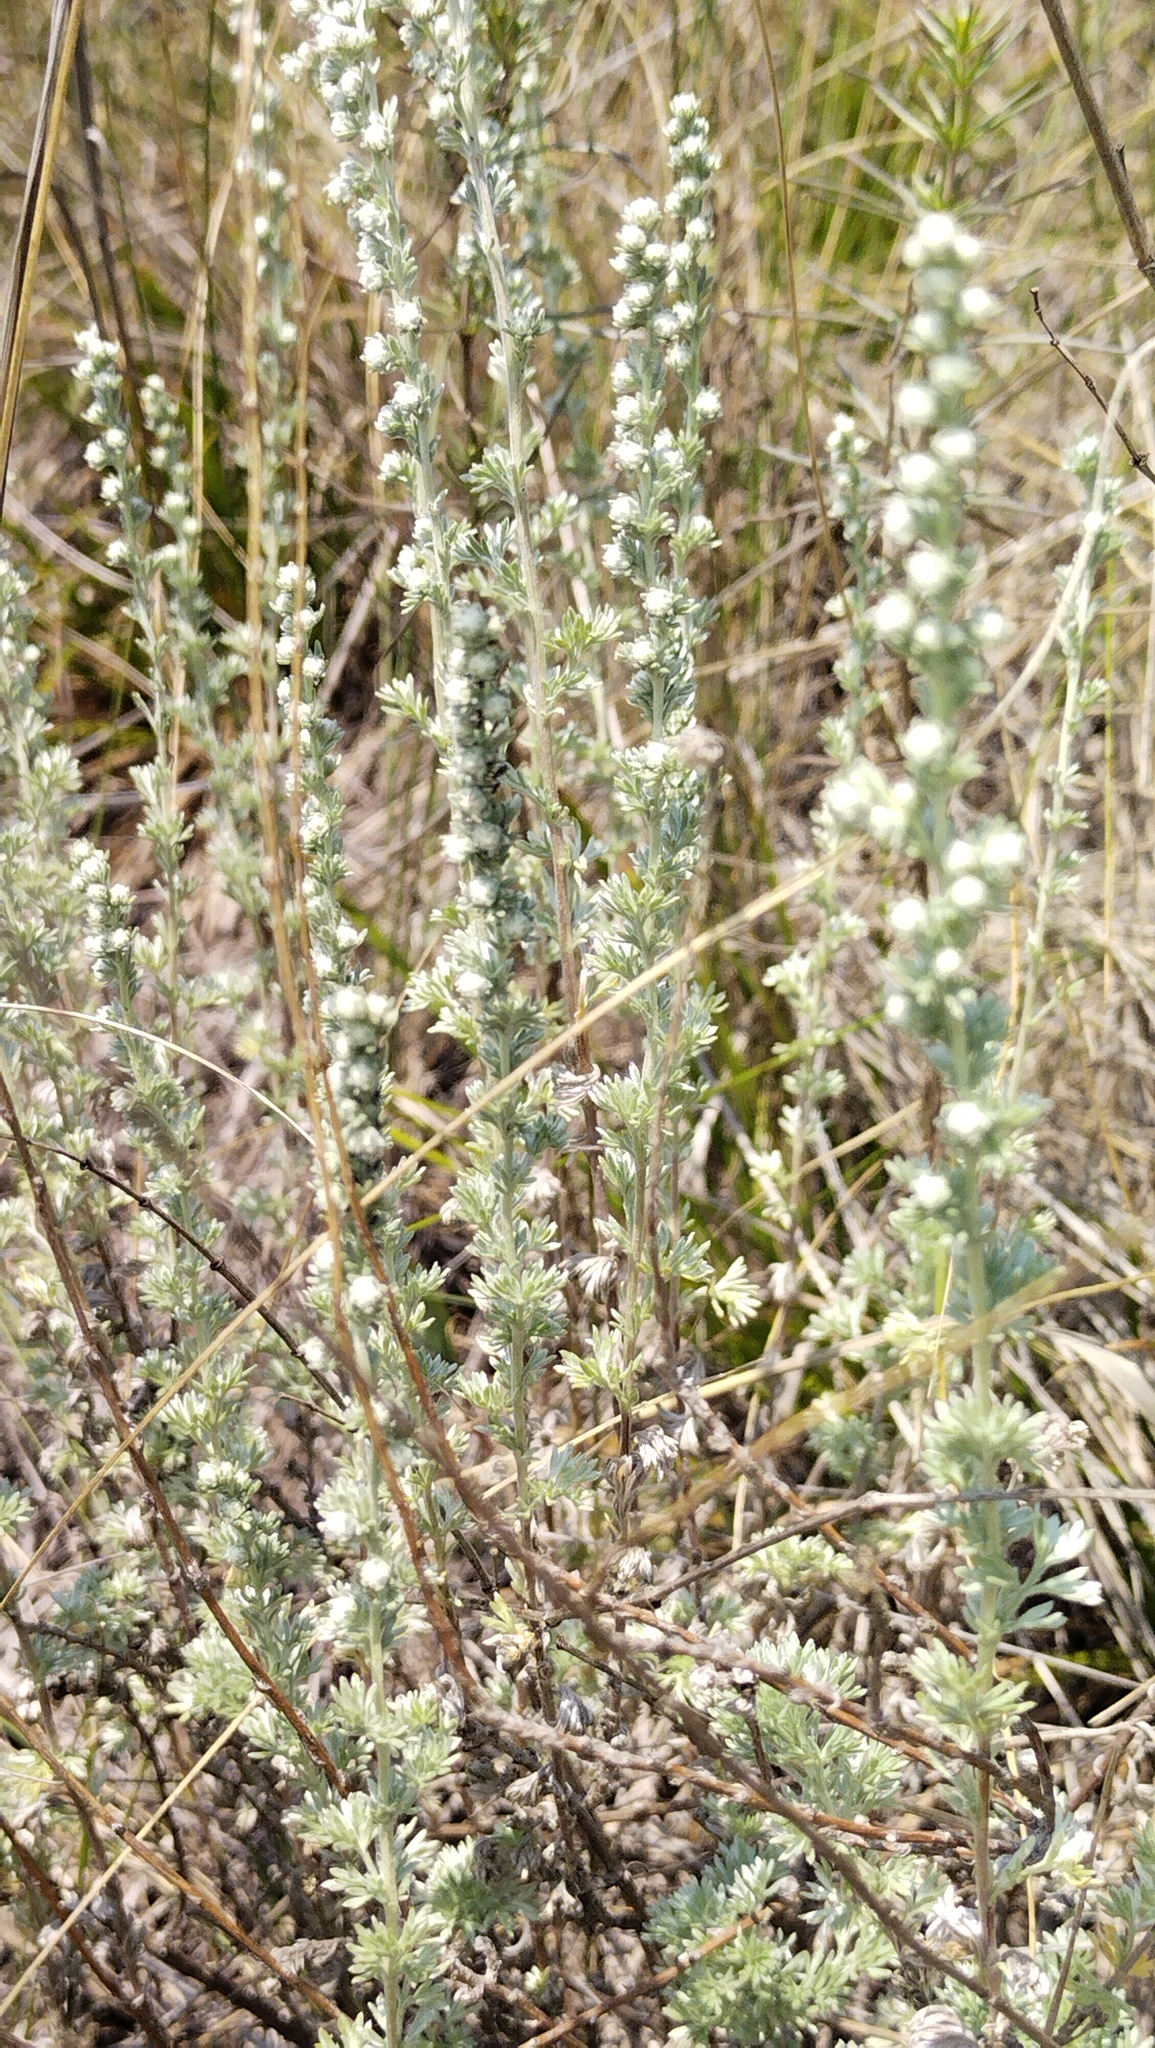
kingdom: Plantae
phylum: Tracheophyta
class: Magnoliopsida
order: Asterales
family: Asteraceae
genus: Artemisia
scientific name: Artemisia frigida
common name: Prairie sagewort
